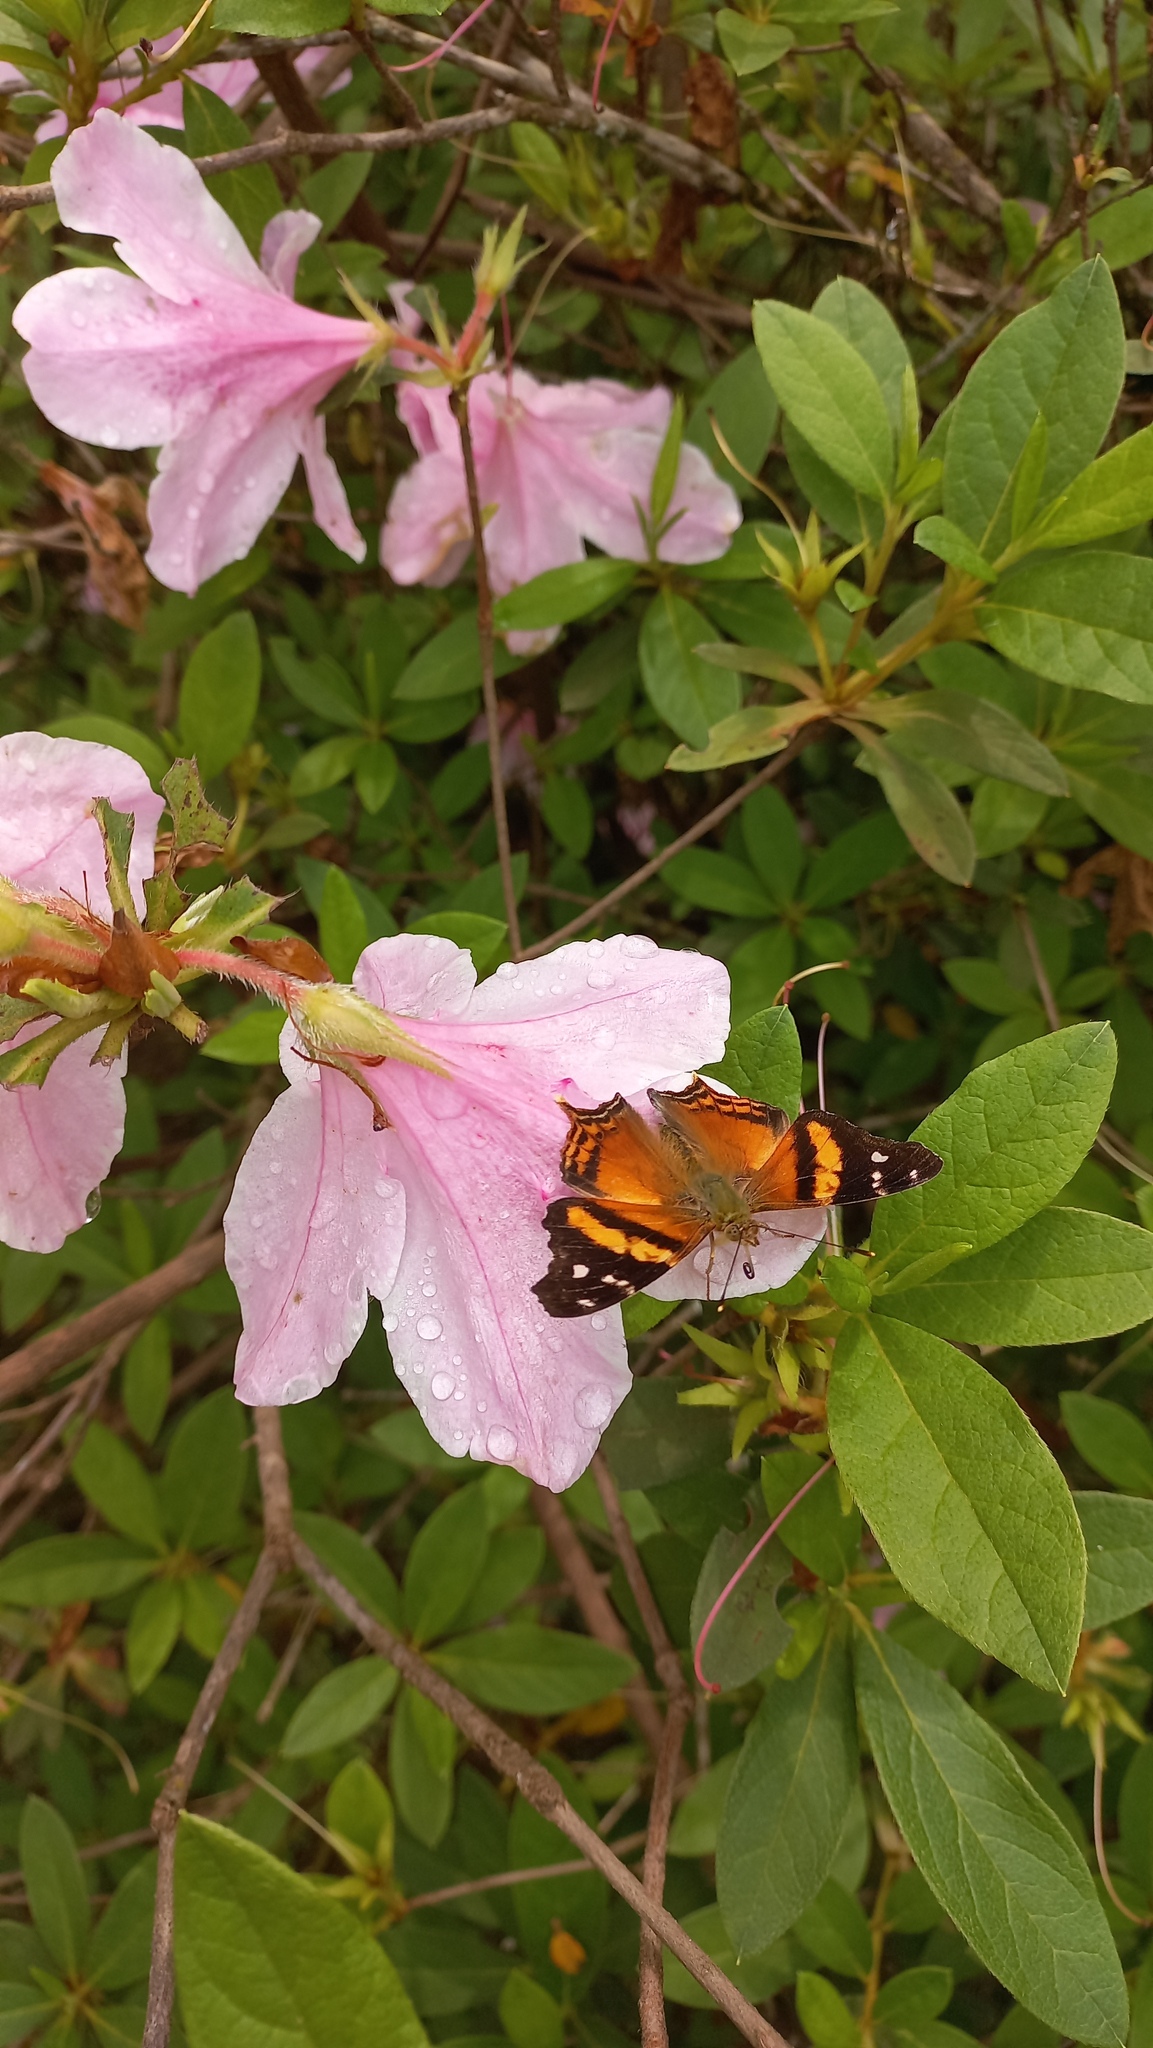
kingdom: Animalia
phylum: Arthropoda
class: Insecta
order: Lepidoptera
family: Nymphalidae
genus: Hypanartia
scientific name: Hypanartia bella
